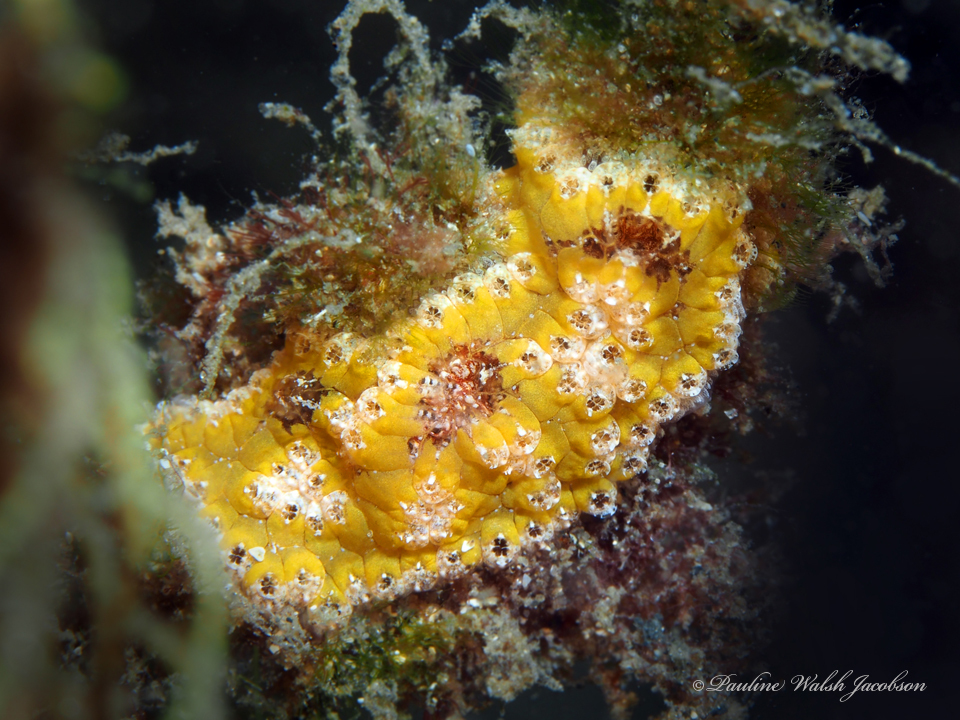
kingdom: Animalia
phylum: Chordata
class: Ascidiacea
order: Stolidobranchia
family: Styelidae
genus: Botryllus
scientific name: Botryllus planus
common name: Flat tunicate
